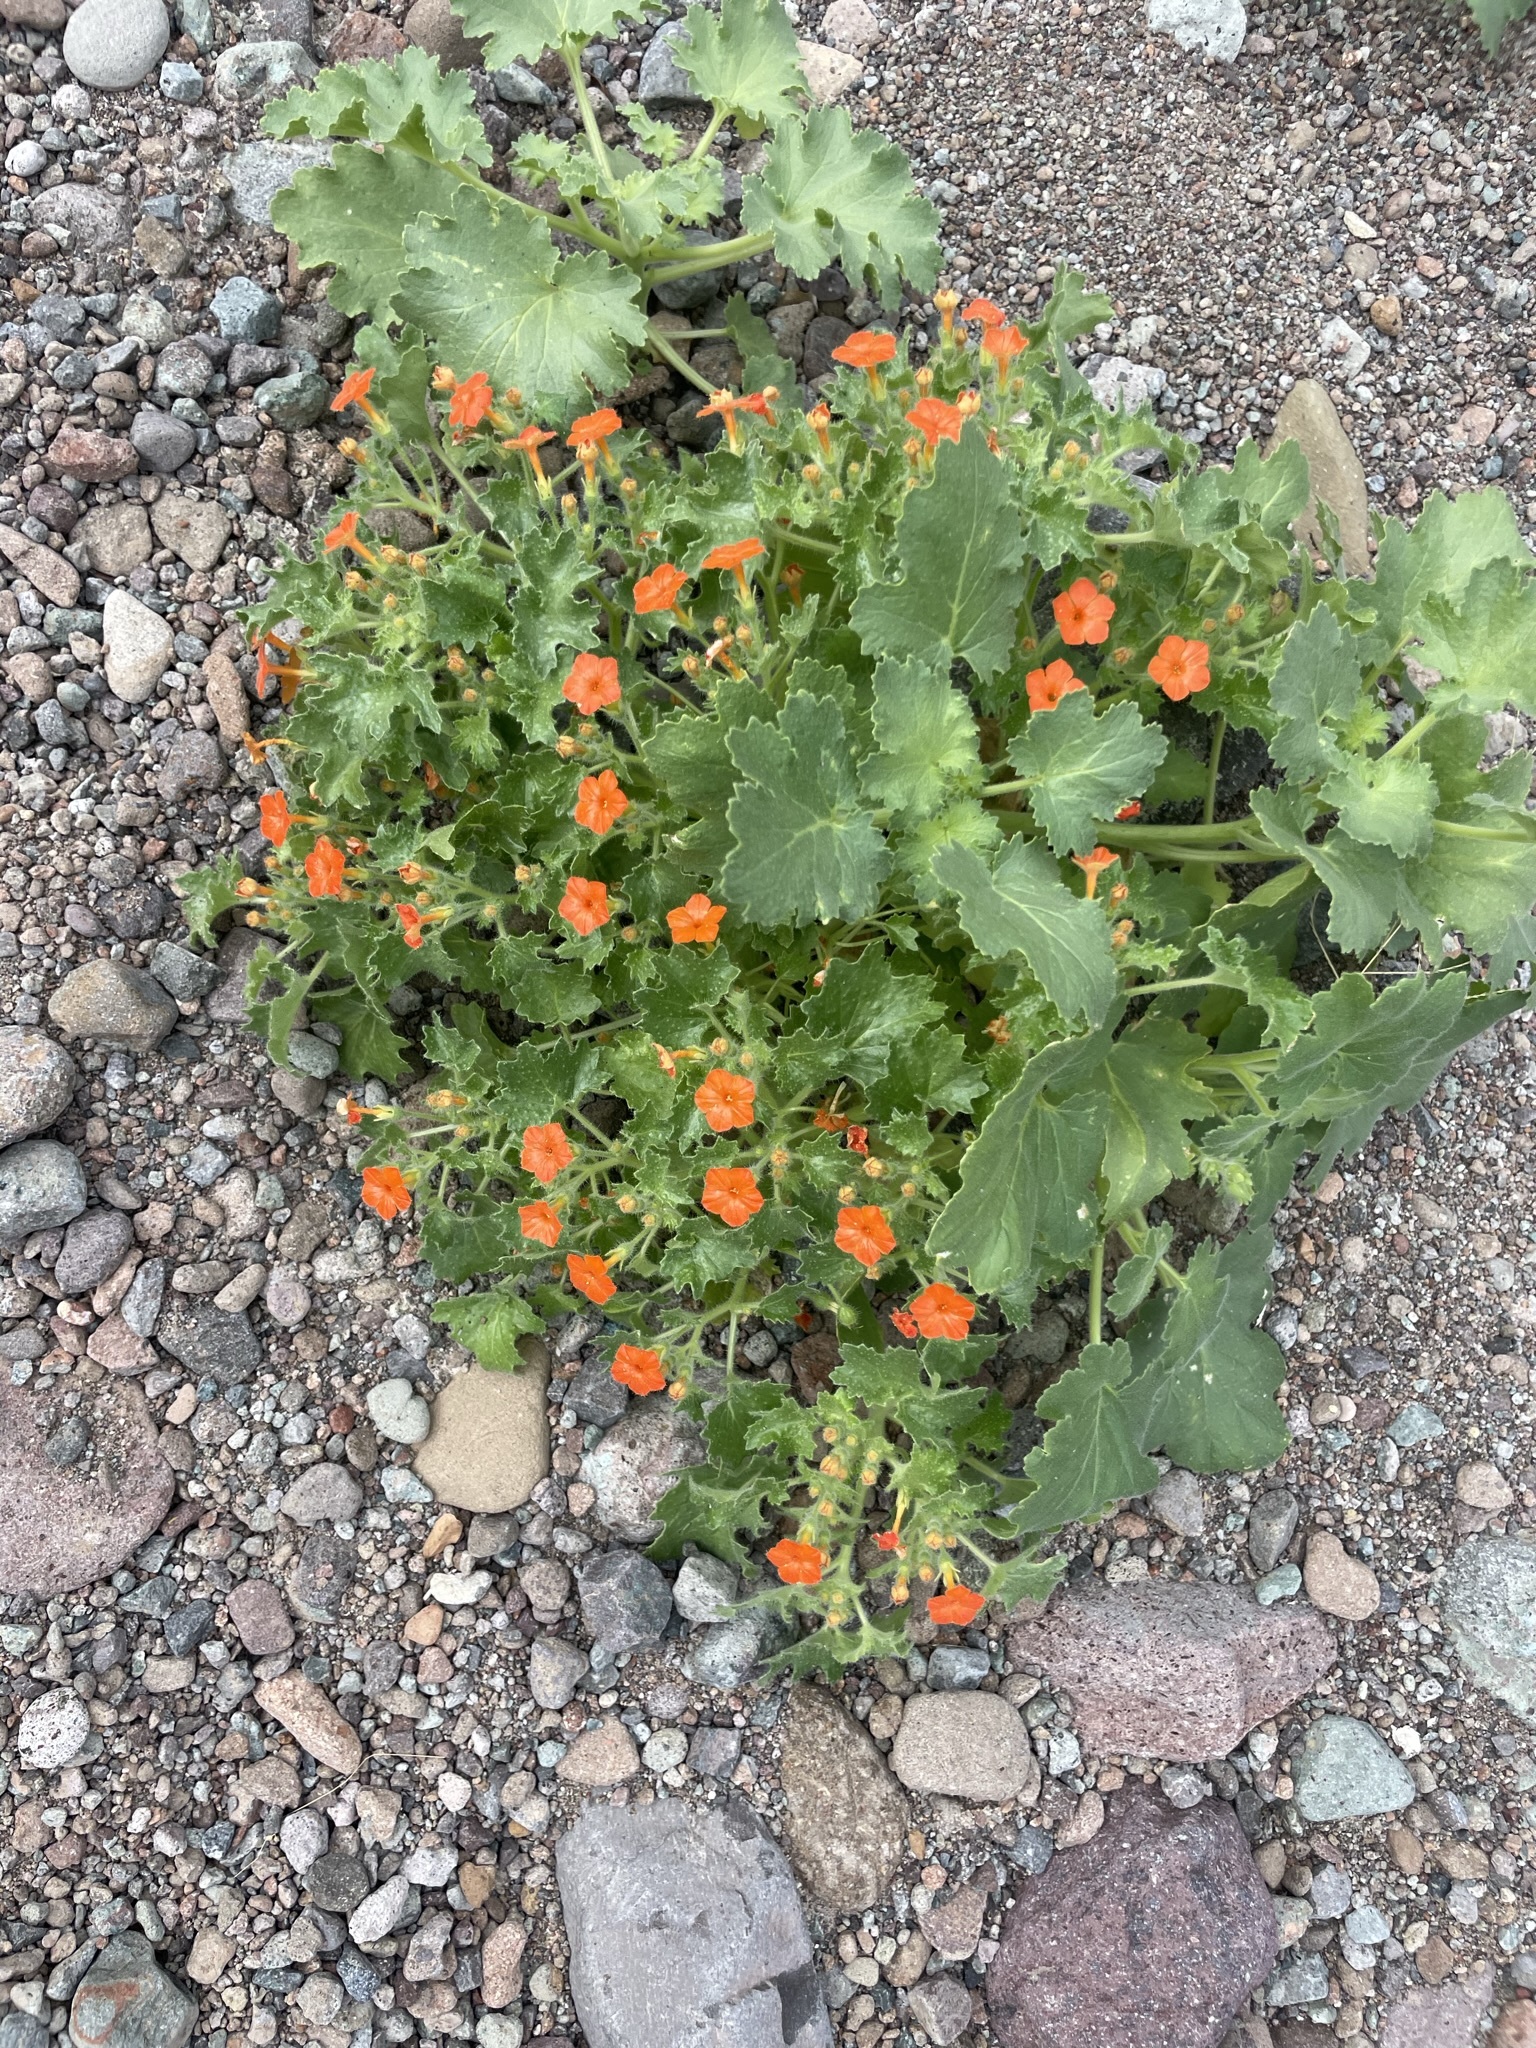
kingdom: Plantae
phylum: Tracheophyta
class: Magnoliopsida
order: Cornales
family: Loasaceae
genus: Eucnide
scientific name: Eucnide aurea
